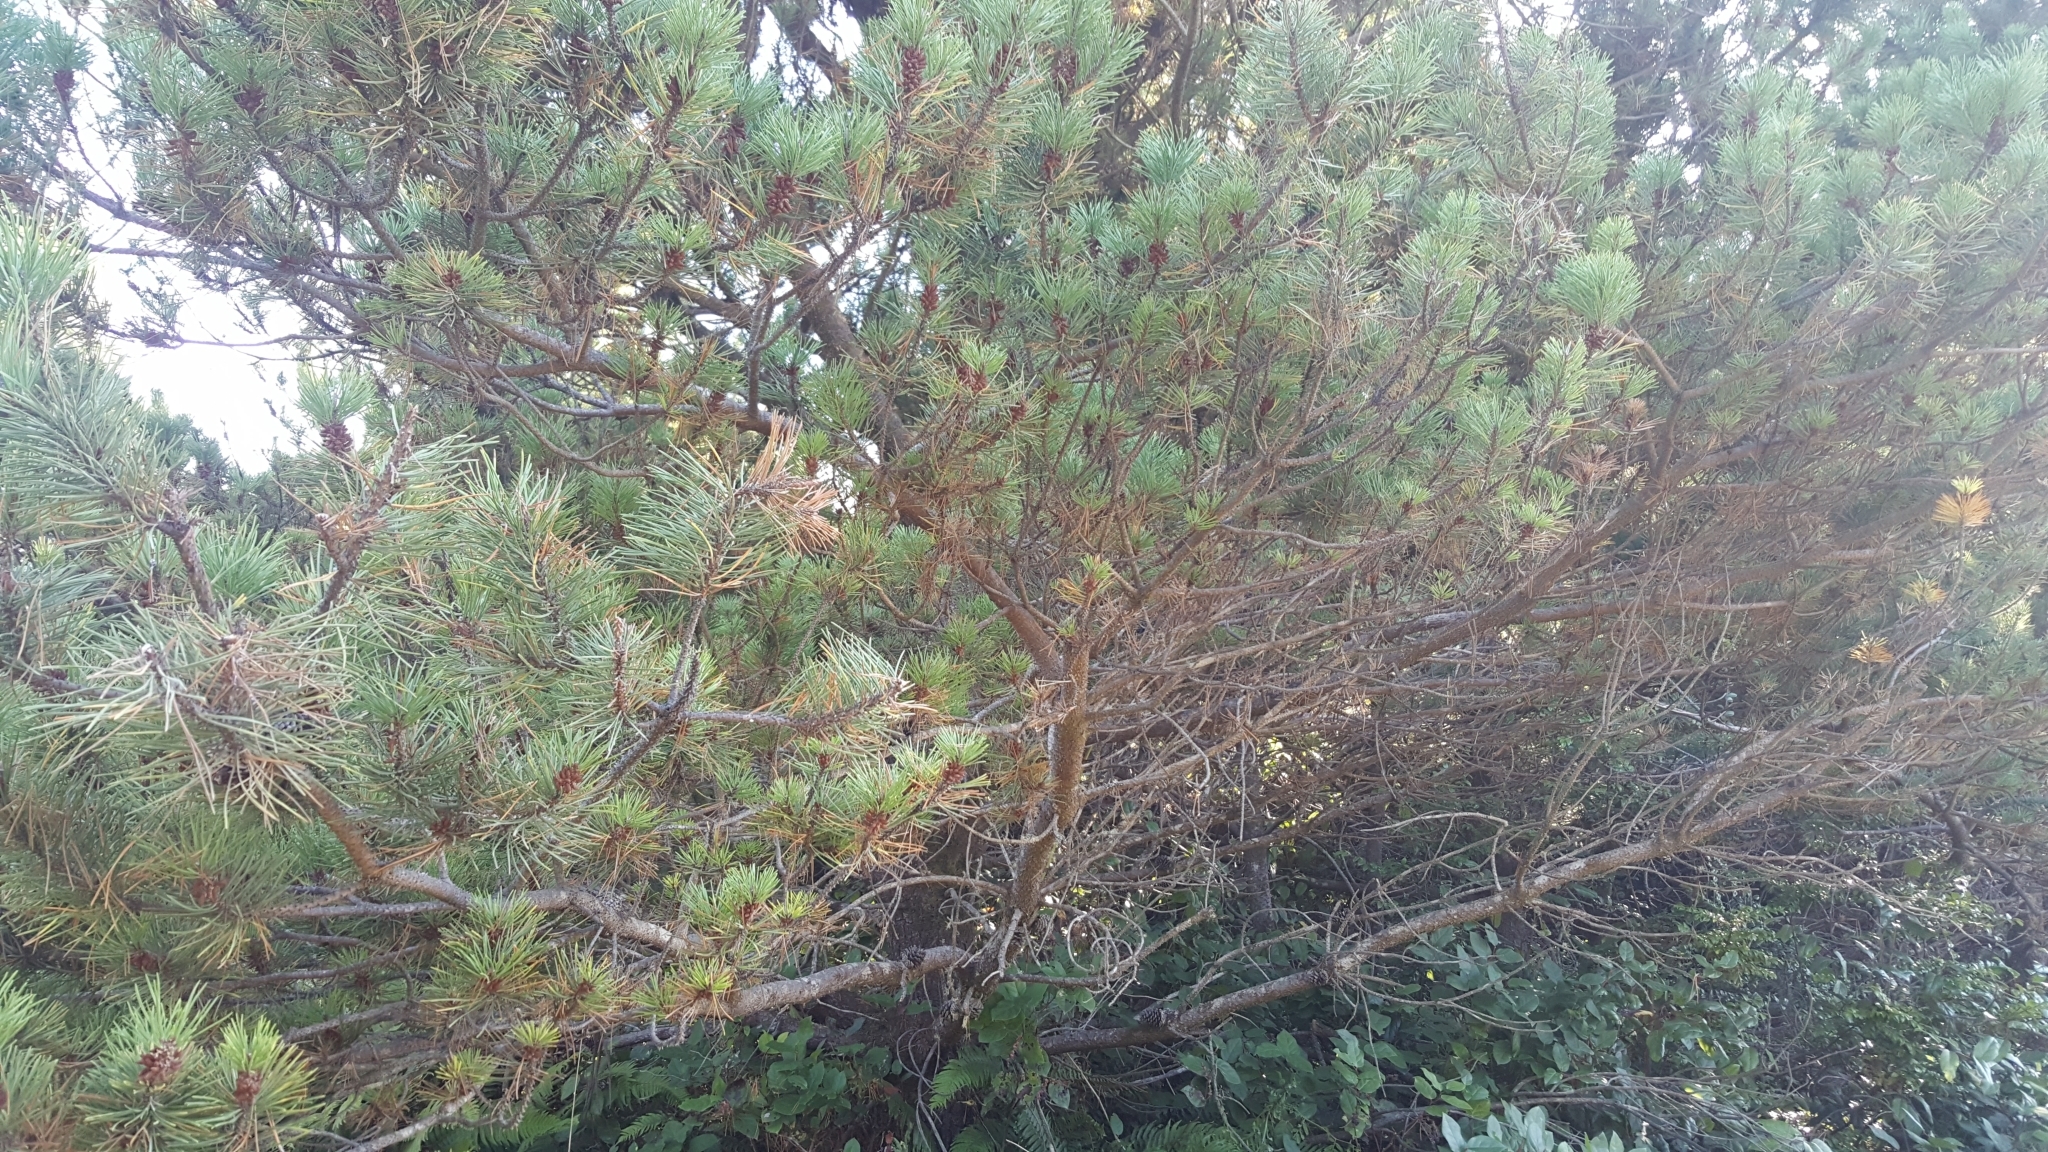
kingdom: Plantae
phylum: Tracheophyta
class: Pinopsida
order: Pinales
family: Pinaceae
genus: Pinus
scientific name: Pinus contorta
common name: Lodgepole pine
